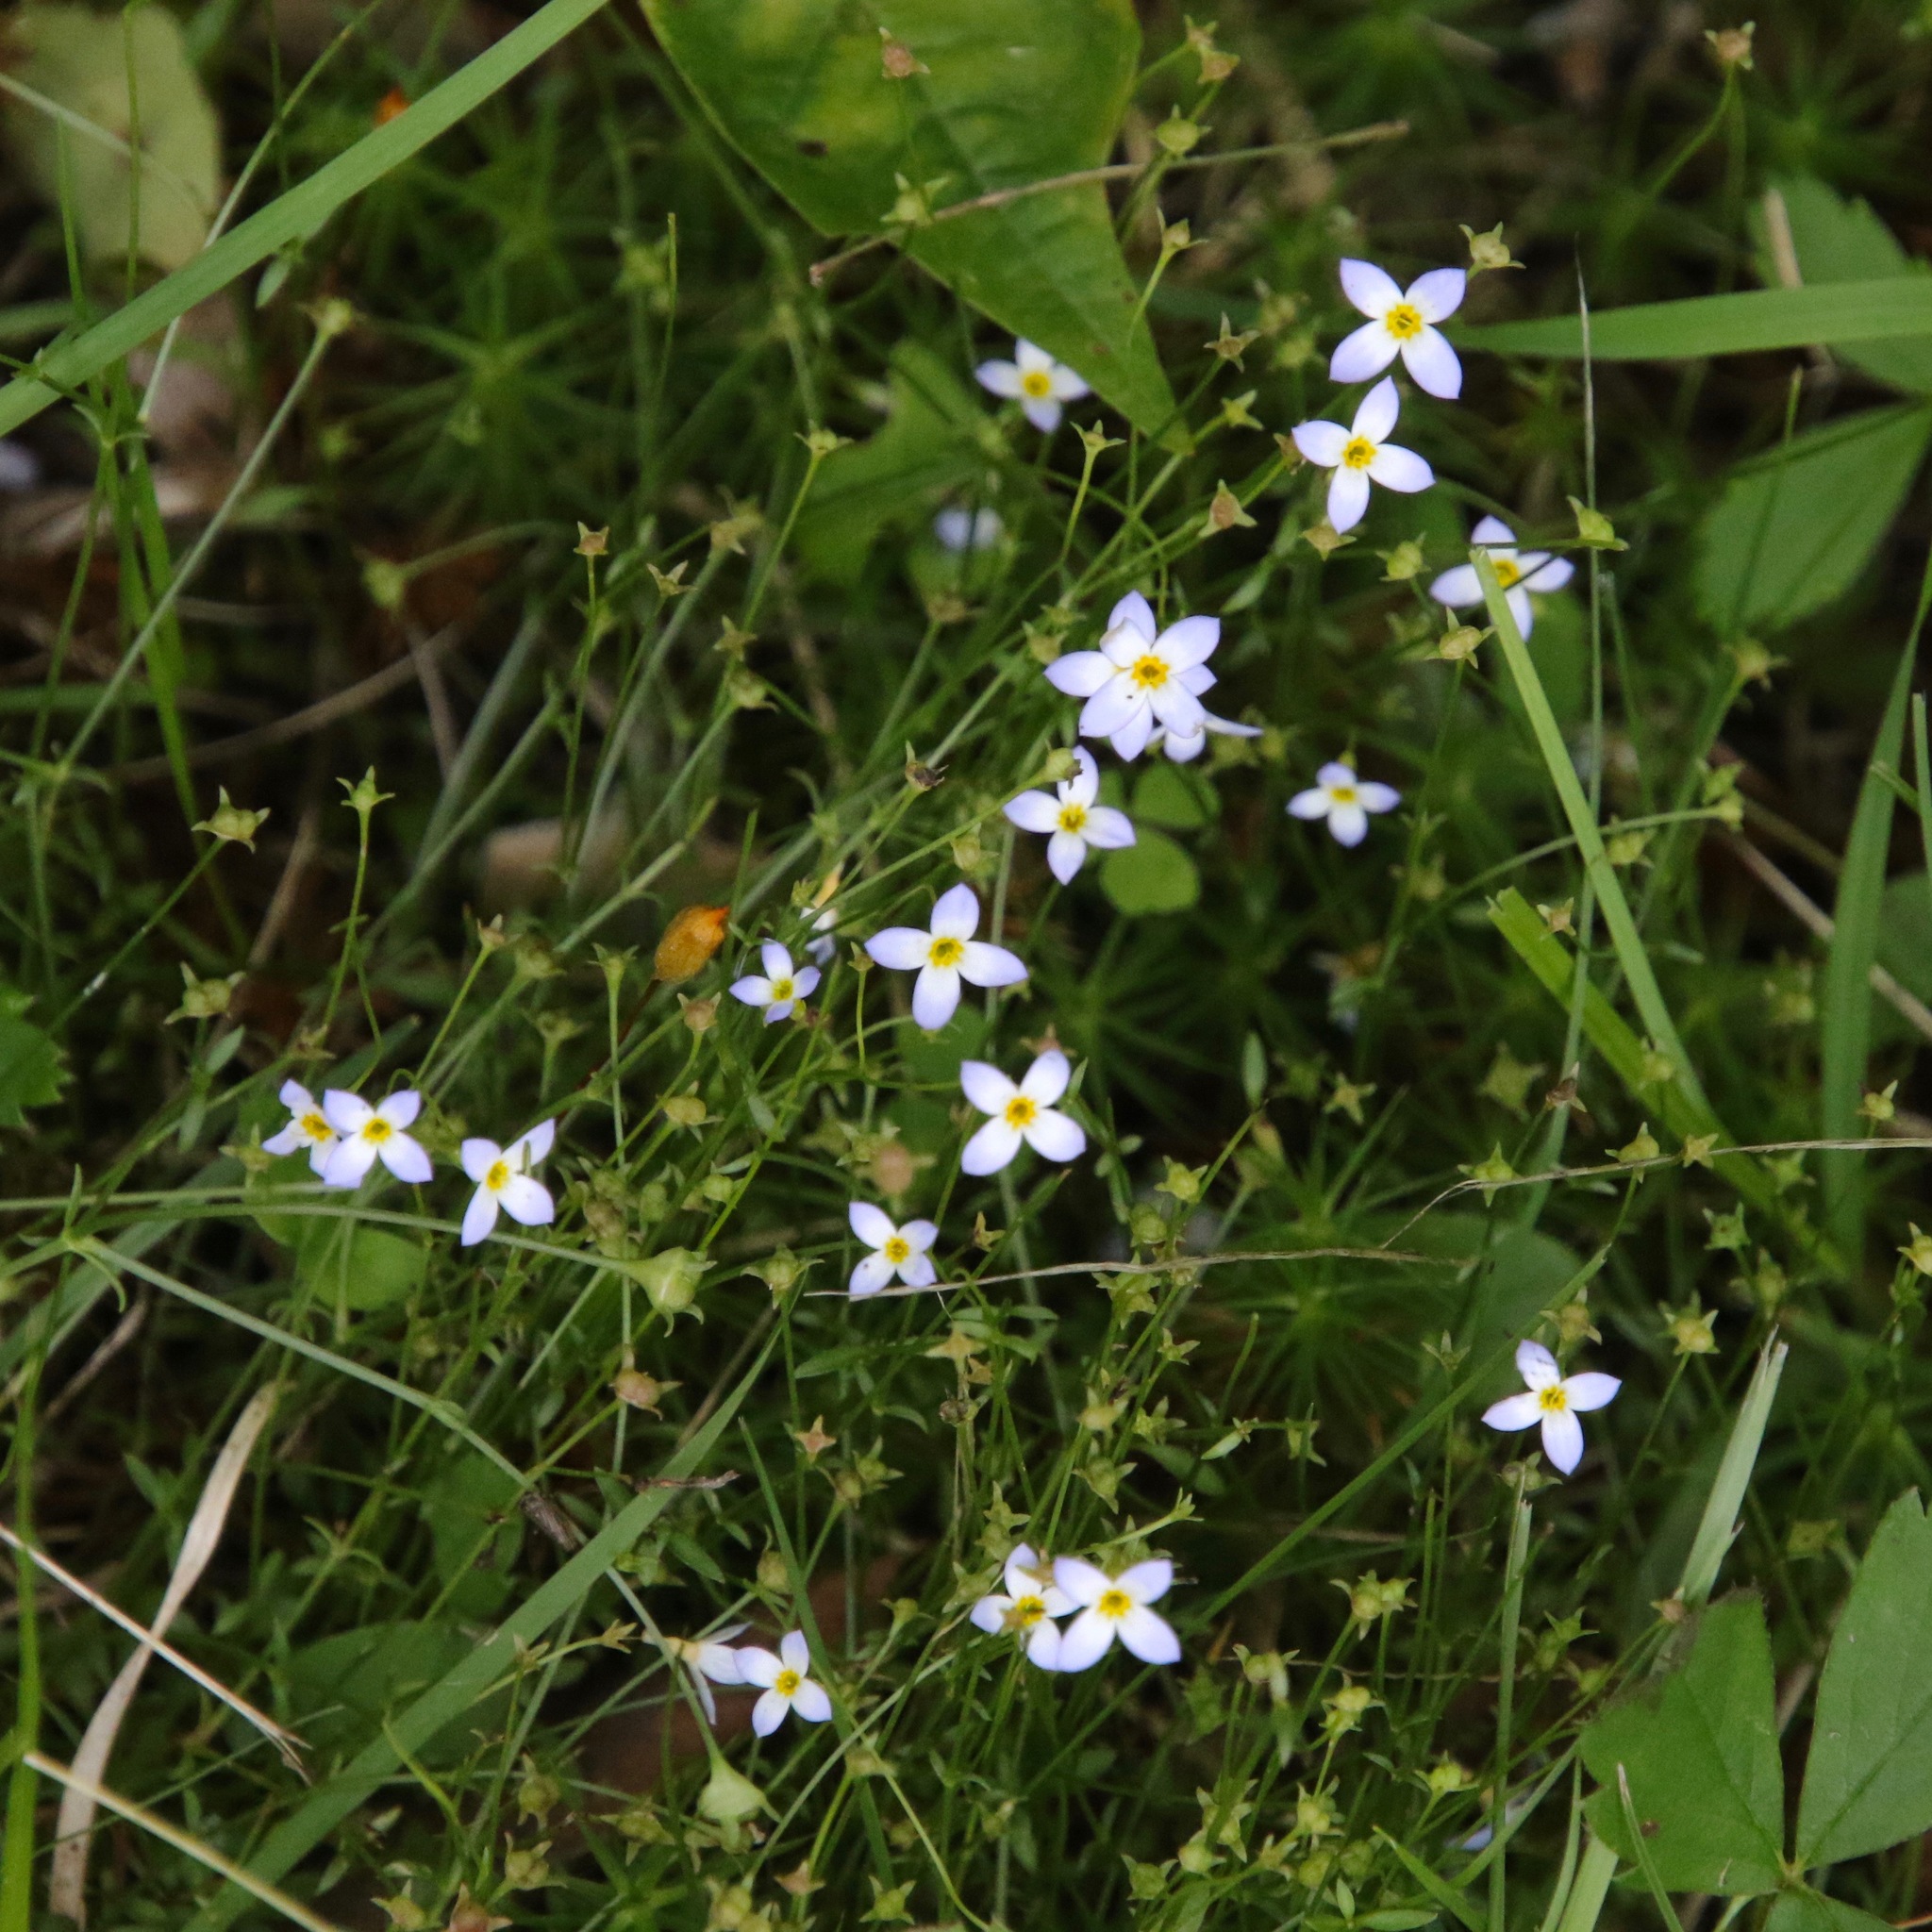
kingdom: Plantae
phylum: Tracheophyta
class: Magnoliopsida
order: Gentianales
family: Rubiaceae
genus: Houstonia
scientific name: Houstonia caerulea
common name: Bluets
